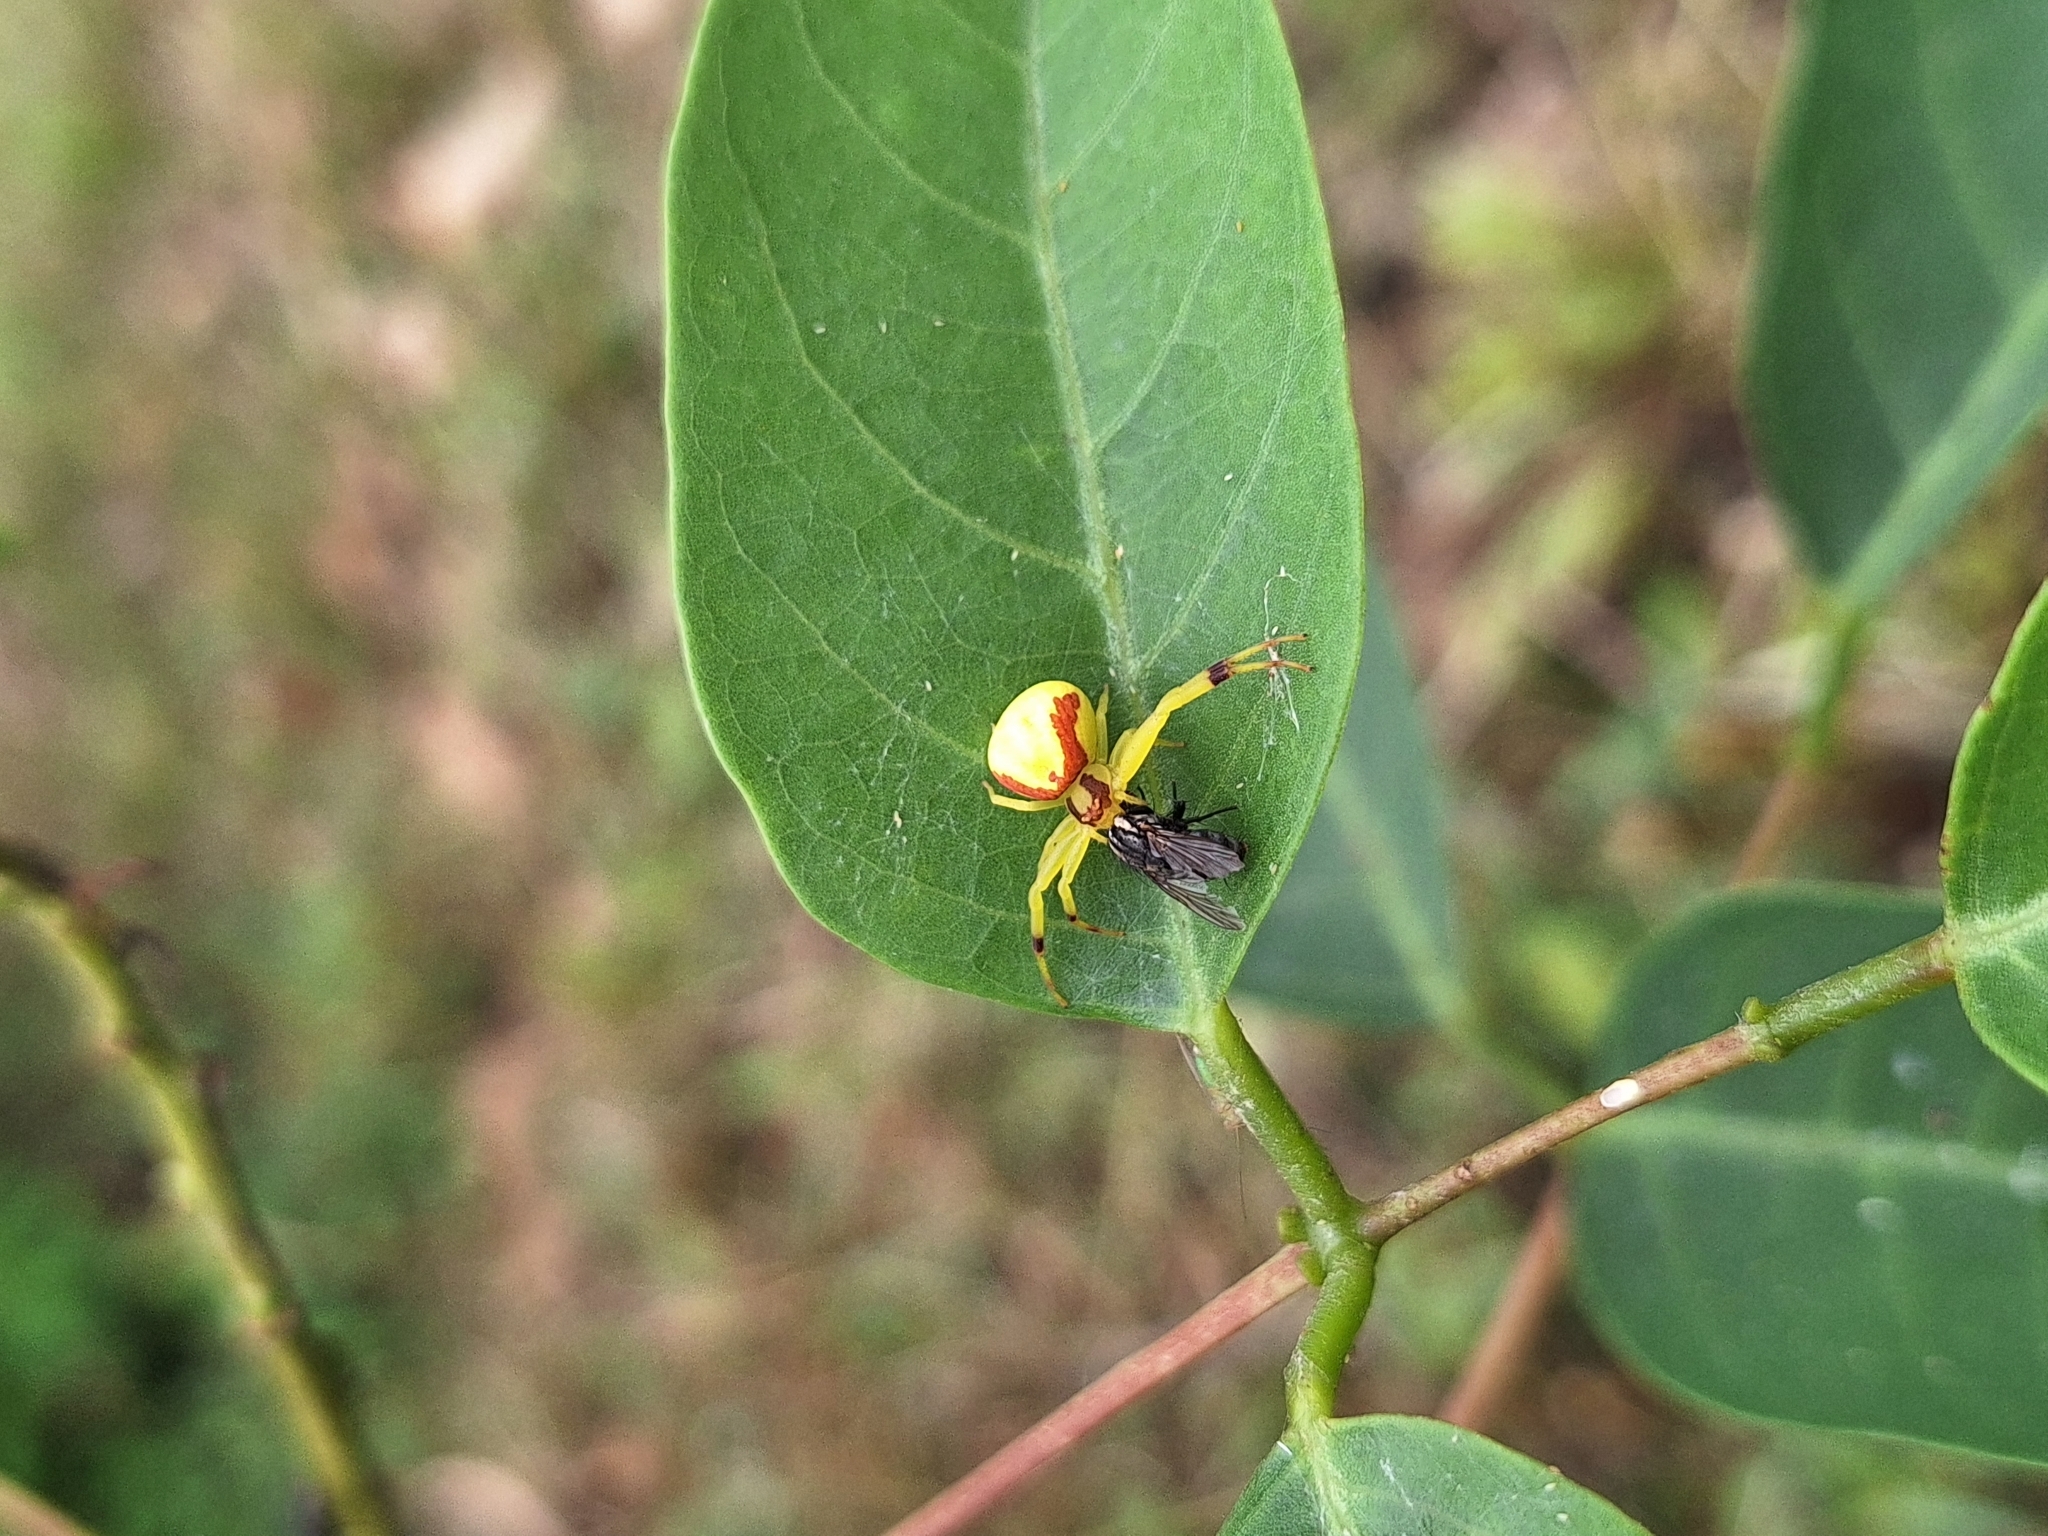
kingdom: Animalia
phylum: Arthropoda
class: Arachnida
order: Araneae
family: Thomisidae
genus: Misumenops
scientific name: Misumenops callinurus
